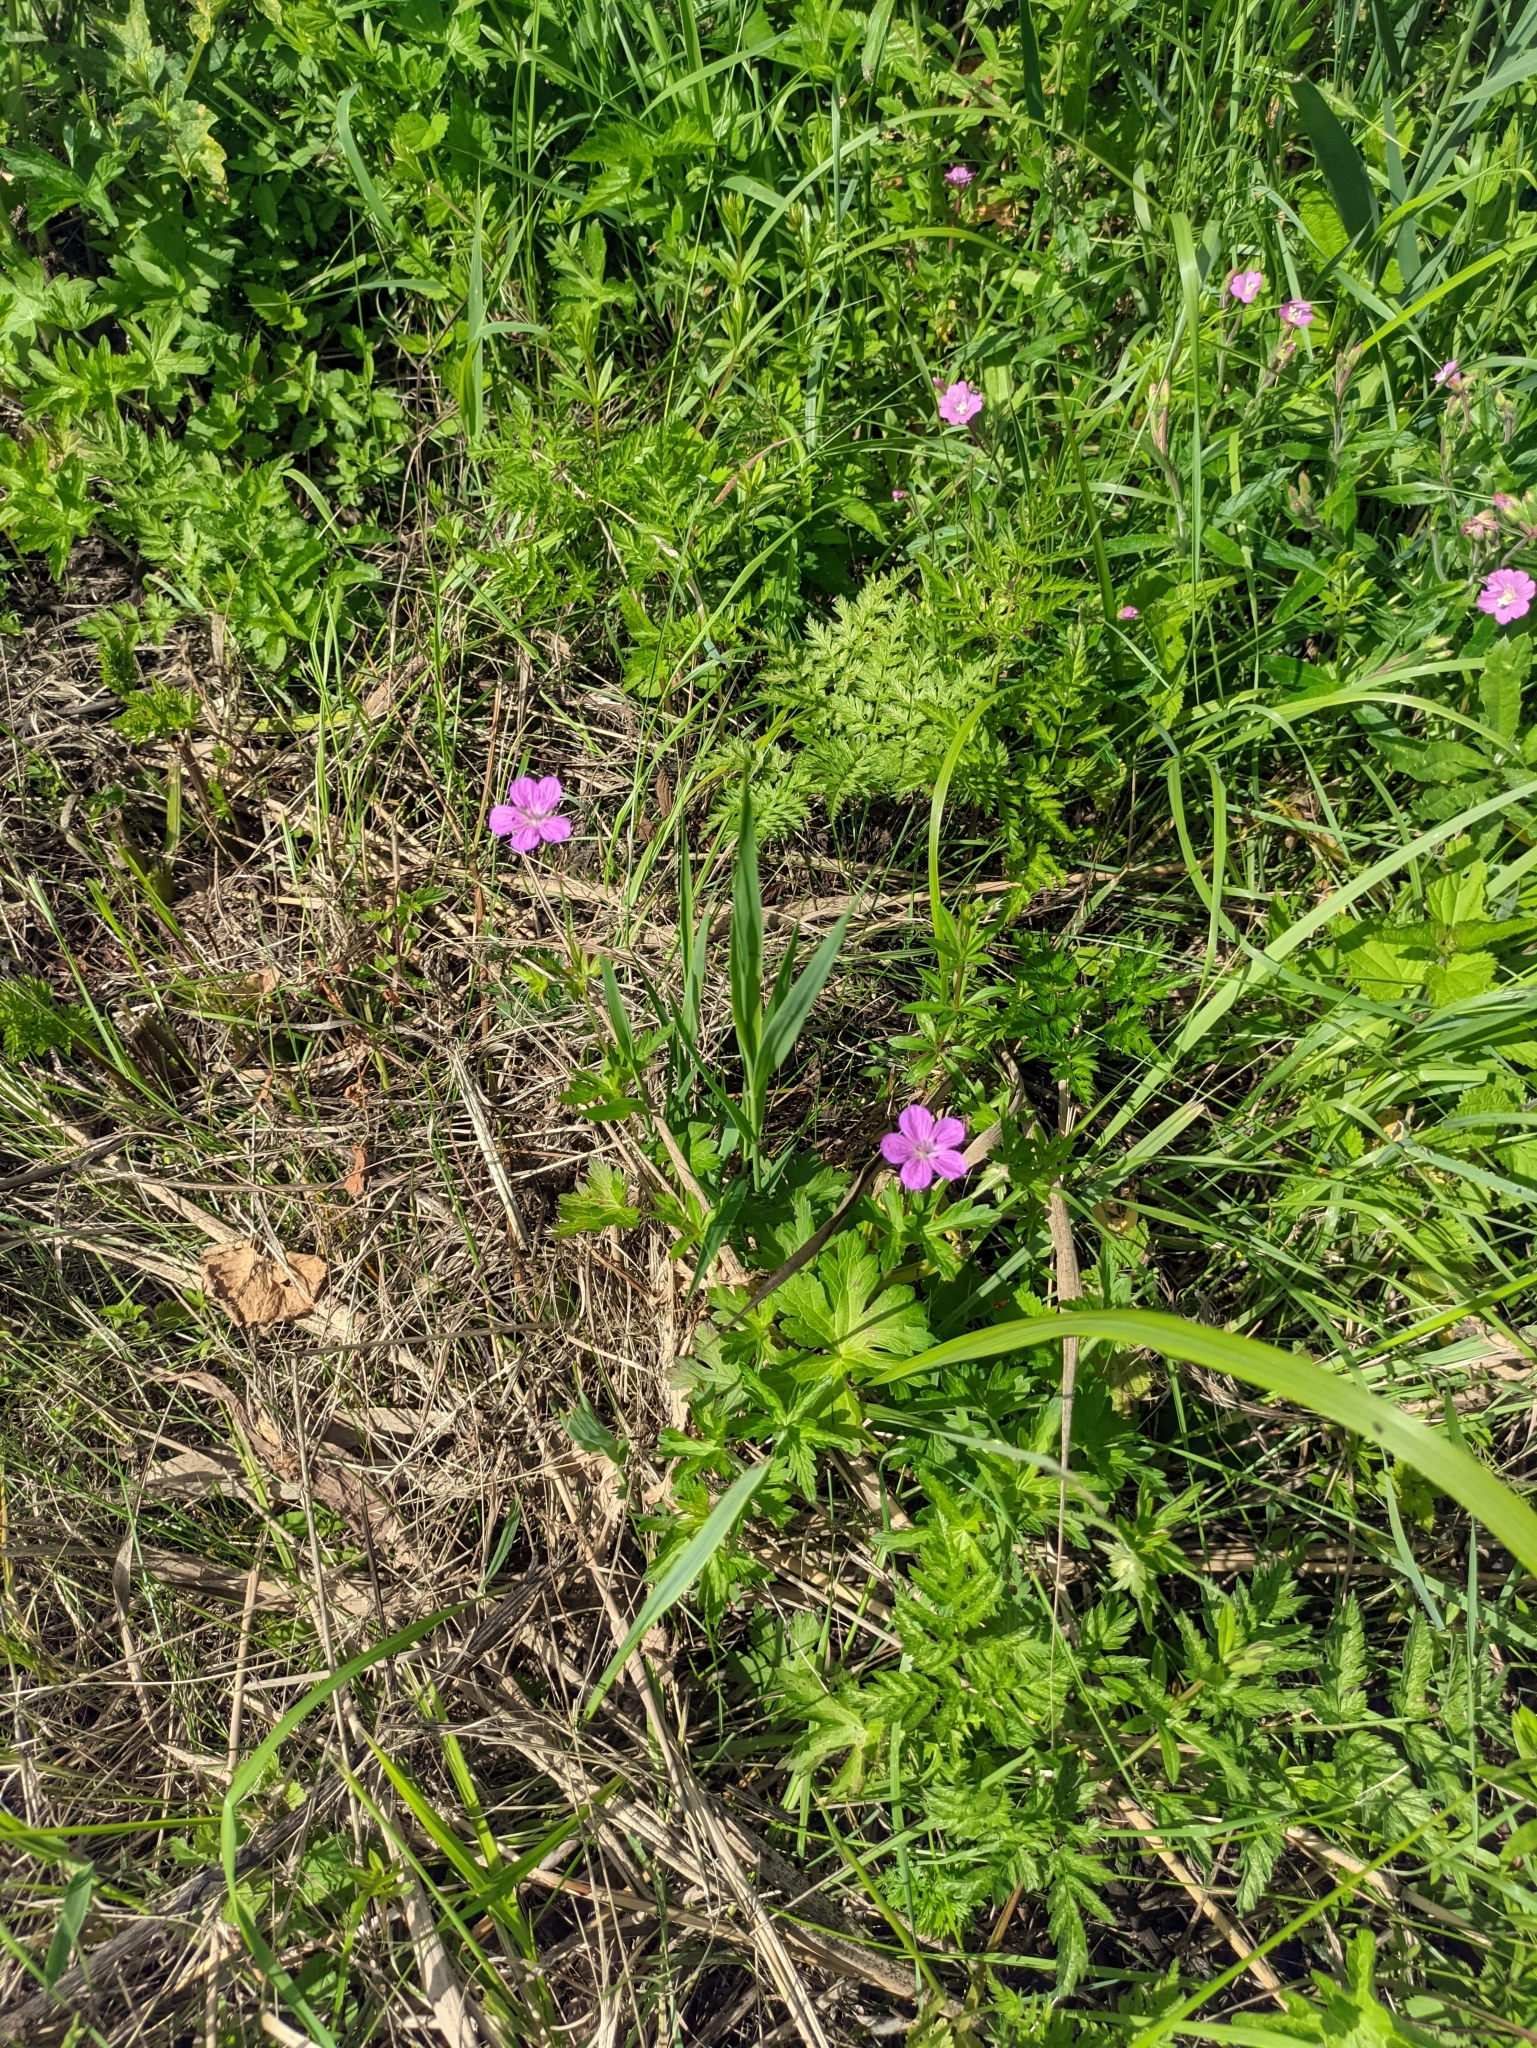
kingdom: Plantae
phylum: Tracheophyta
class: Magnoliopsida
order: Geraniales
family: Geraniaceae
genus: Geranium
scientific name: Geranium palustre
